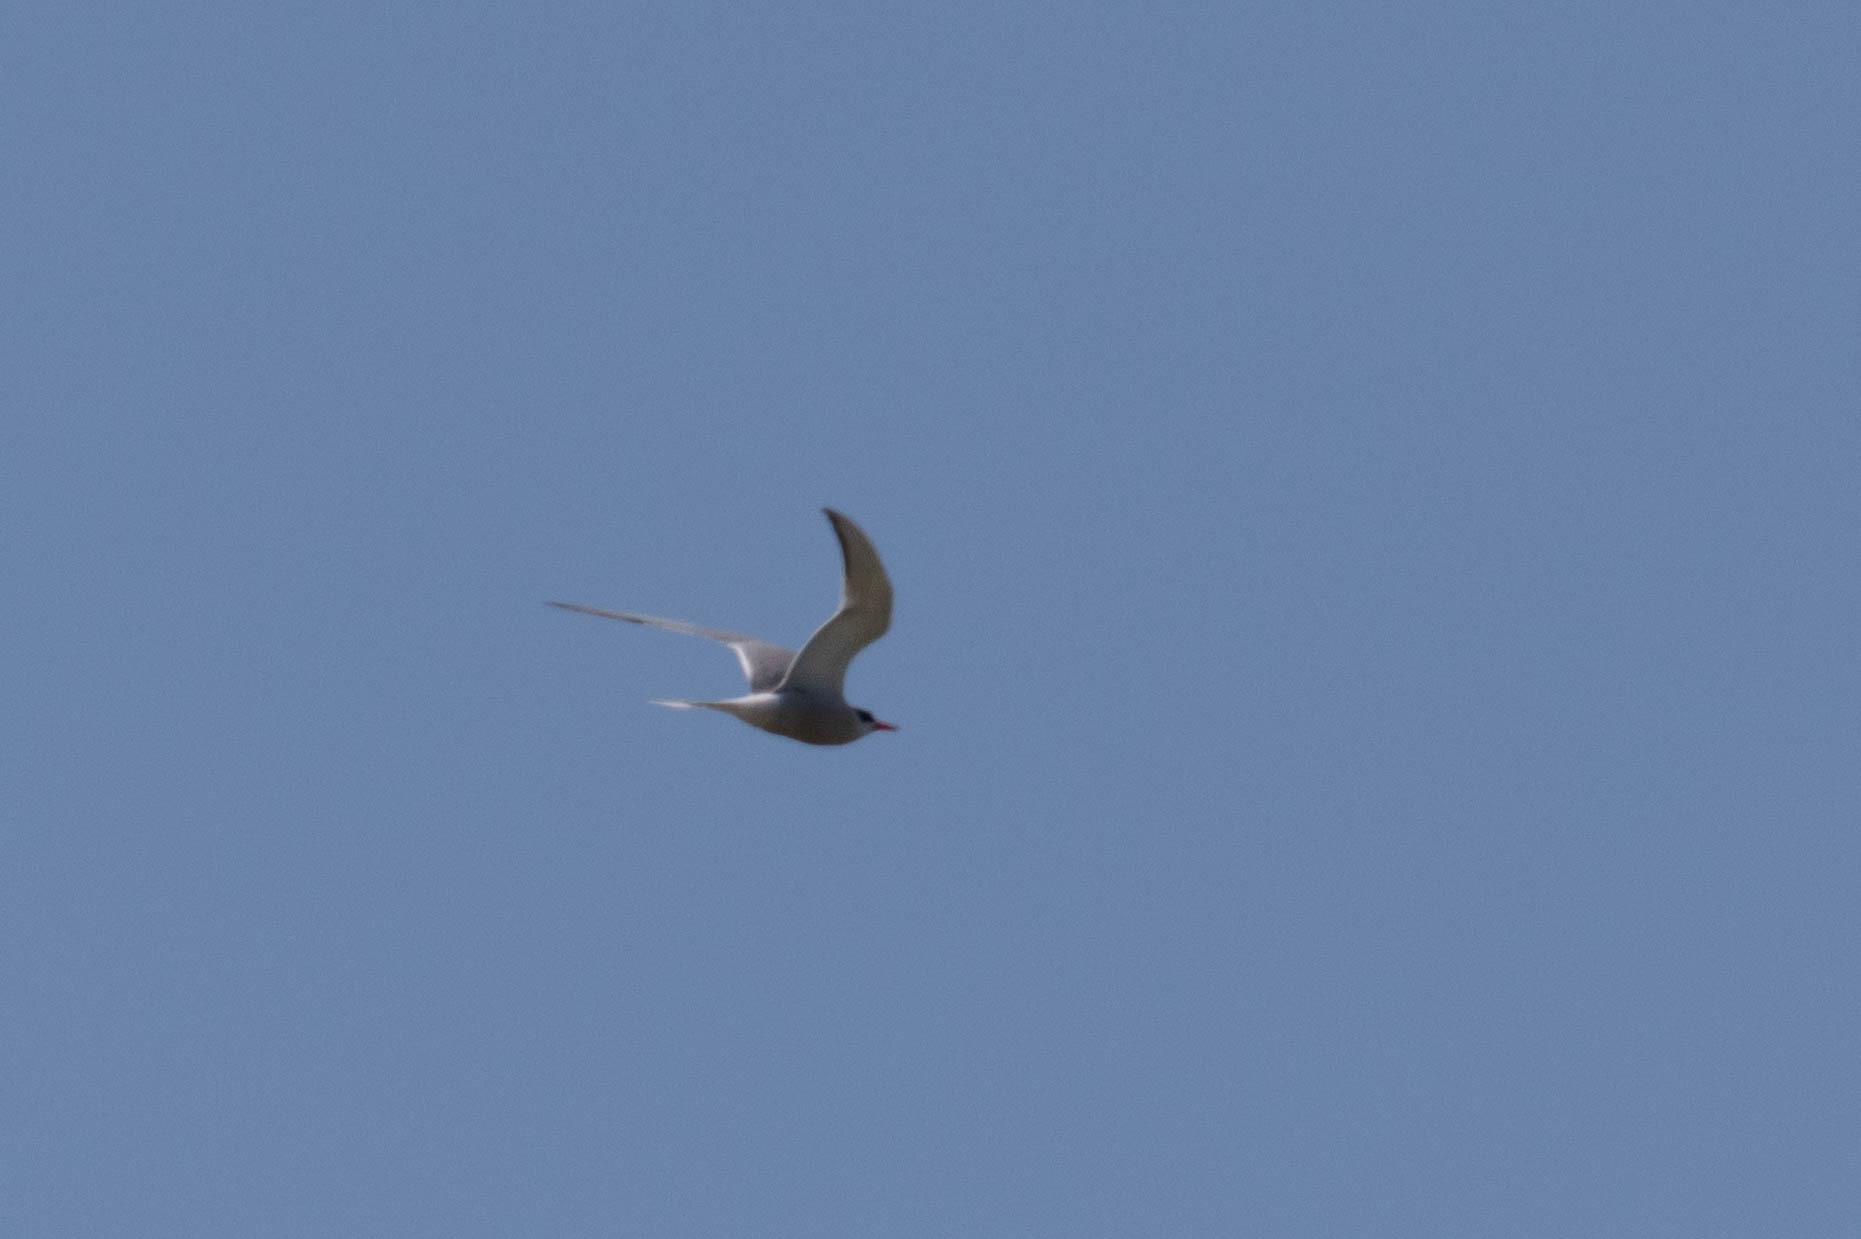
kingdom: Animalia
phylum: Chordata
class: Aves
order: Charadriiformes
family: Laridae
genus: Sterna
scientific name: Sterna hirundo
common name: Common tern
